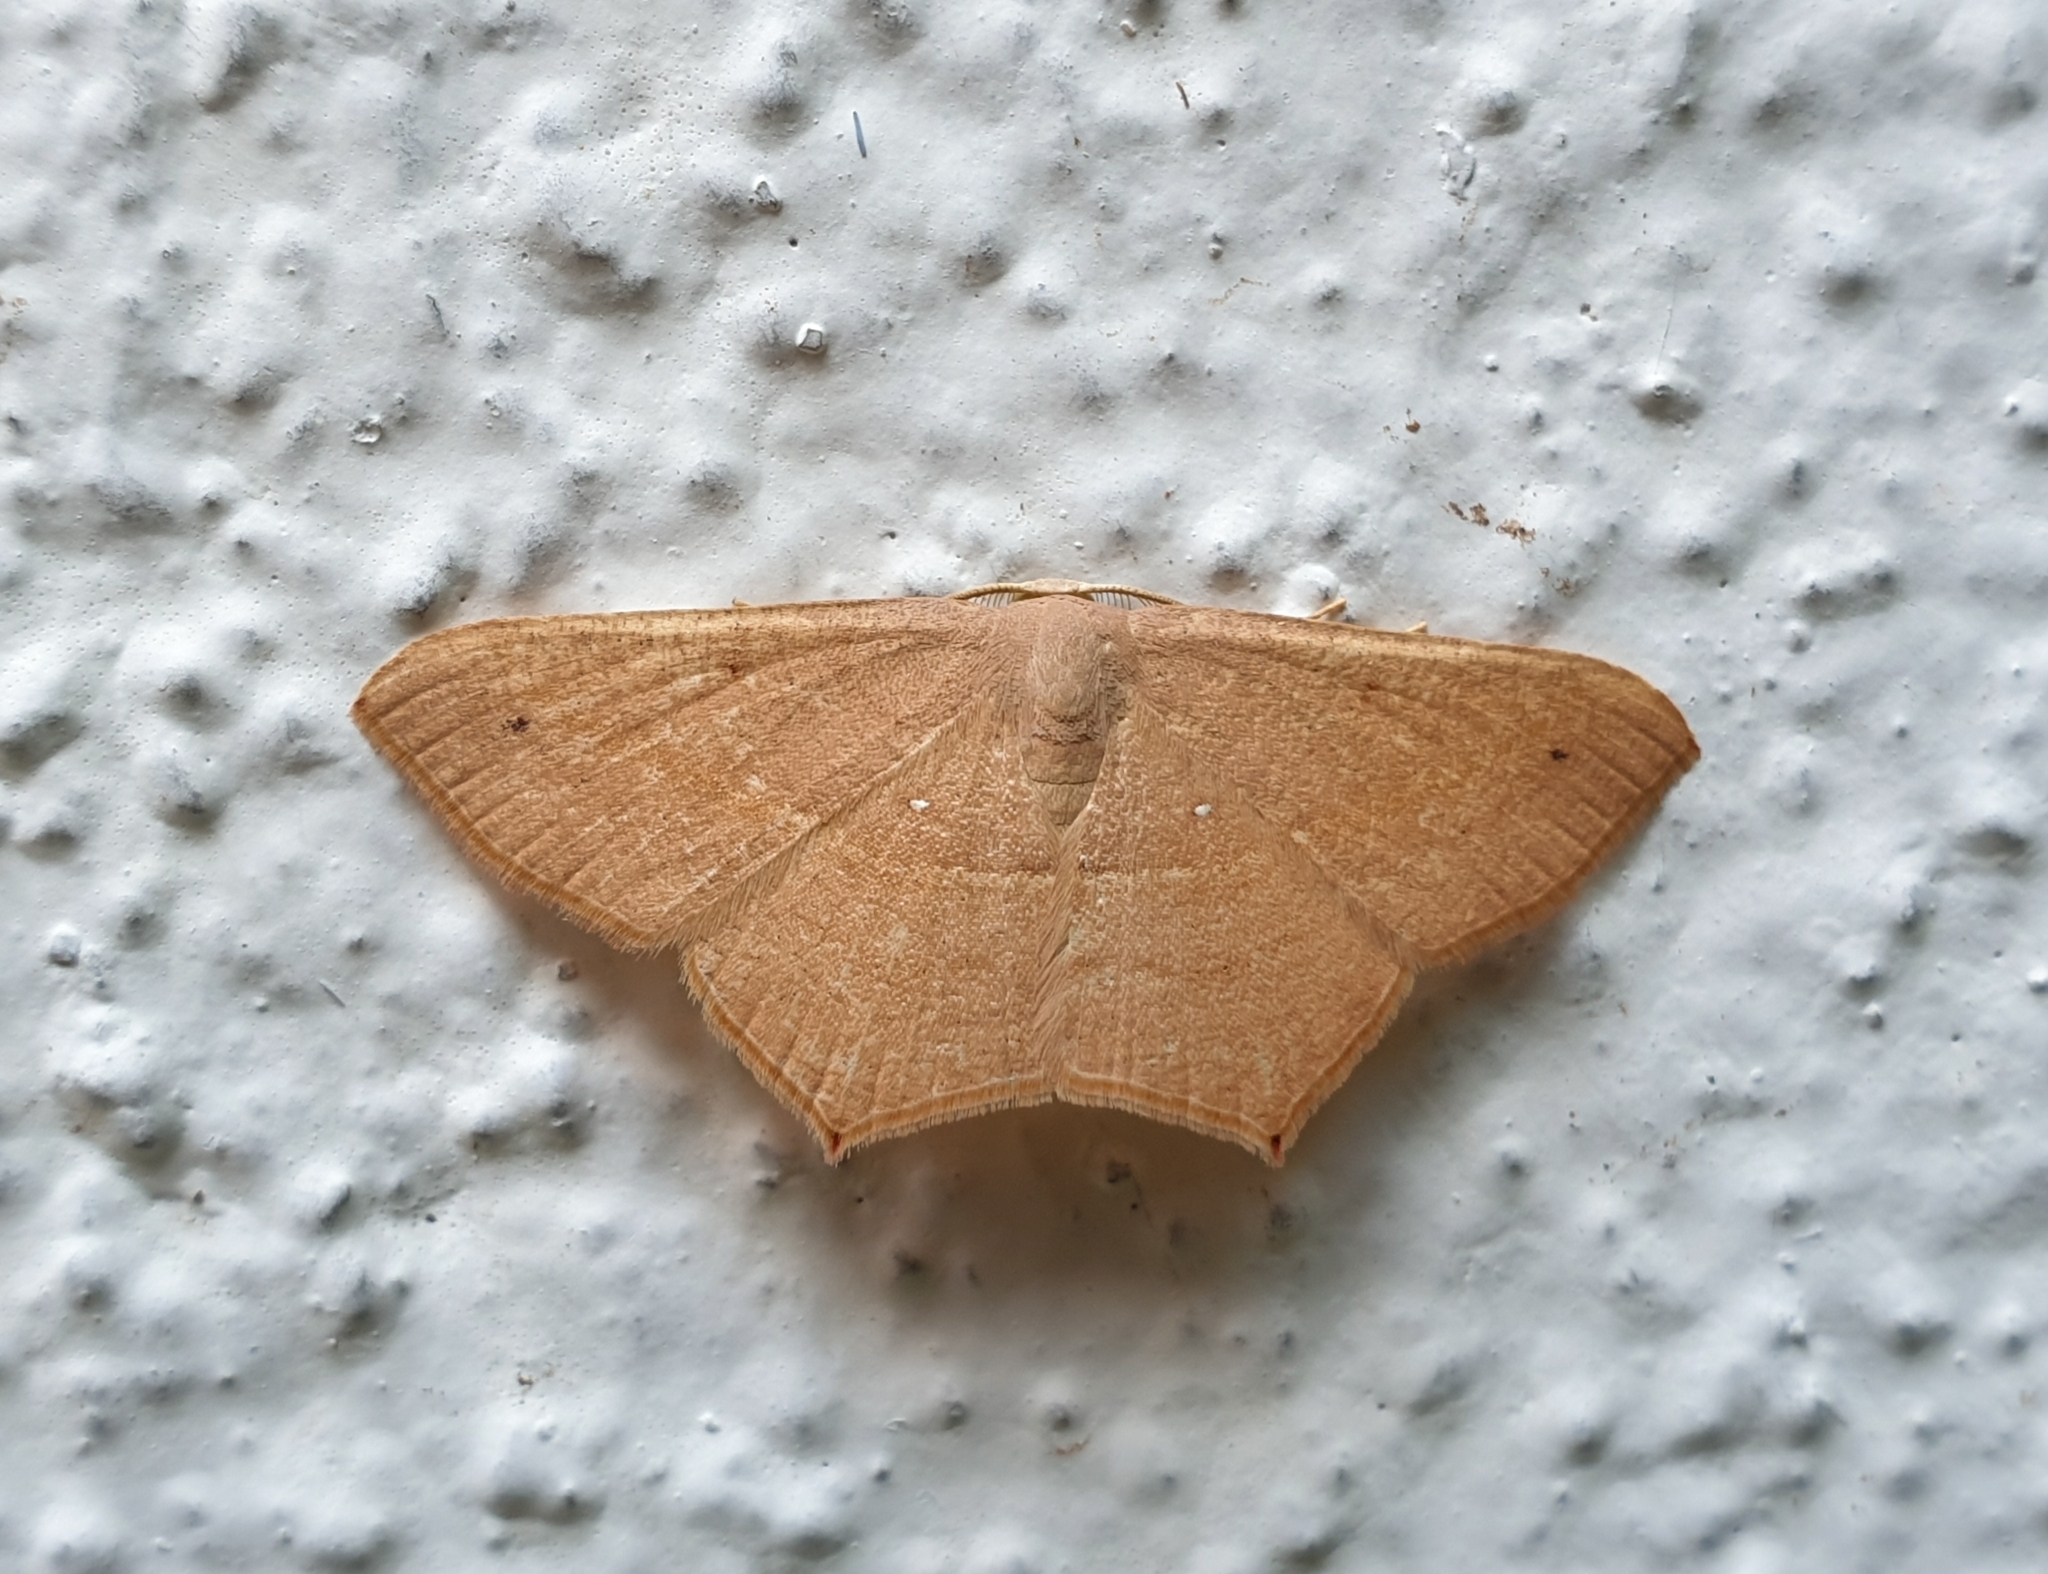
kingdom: Animalia
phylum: Arthropoda
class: Insecta
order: Lepidoptera
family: Geometridae
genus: Traminda
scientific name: Traminda mundissima
